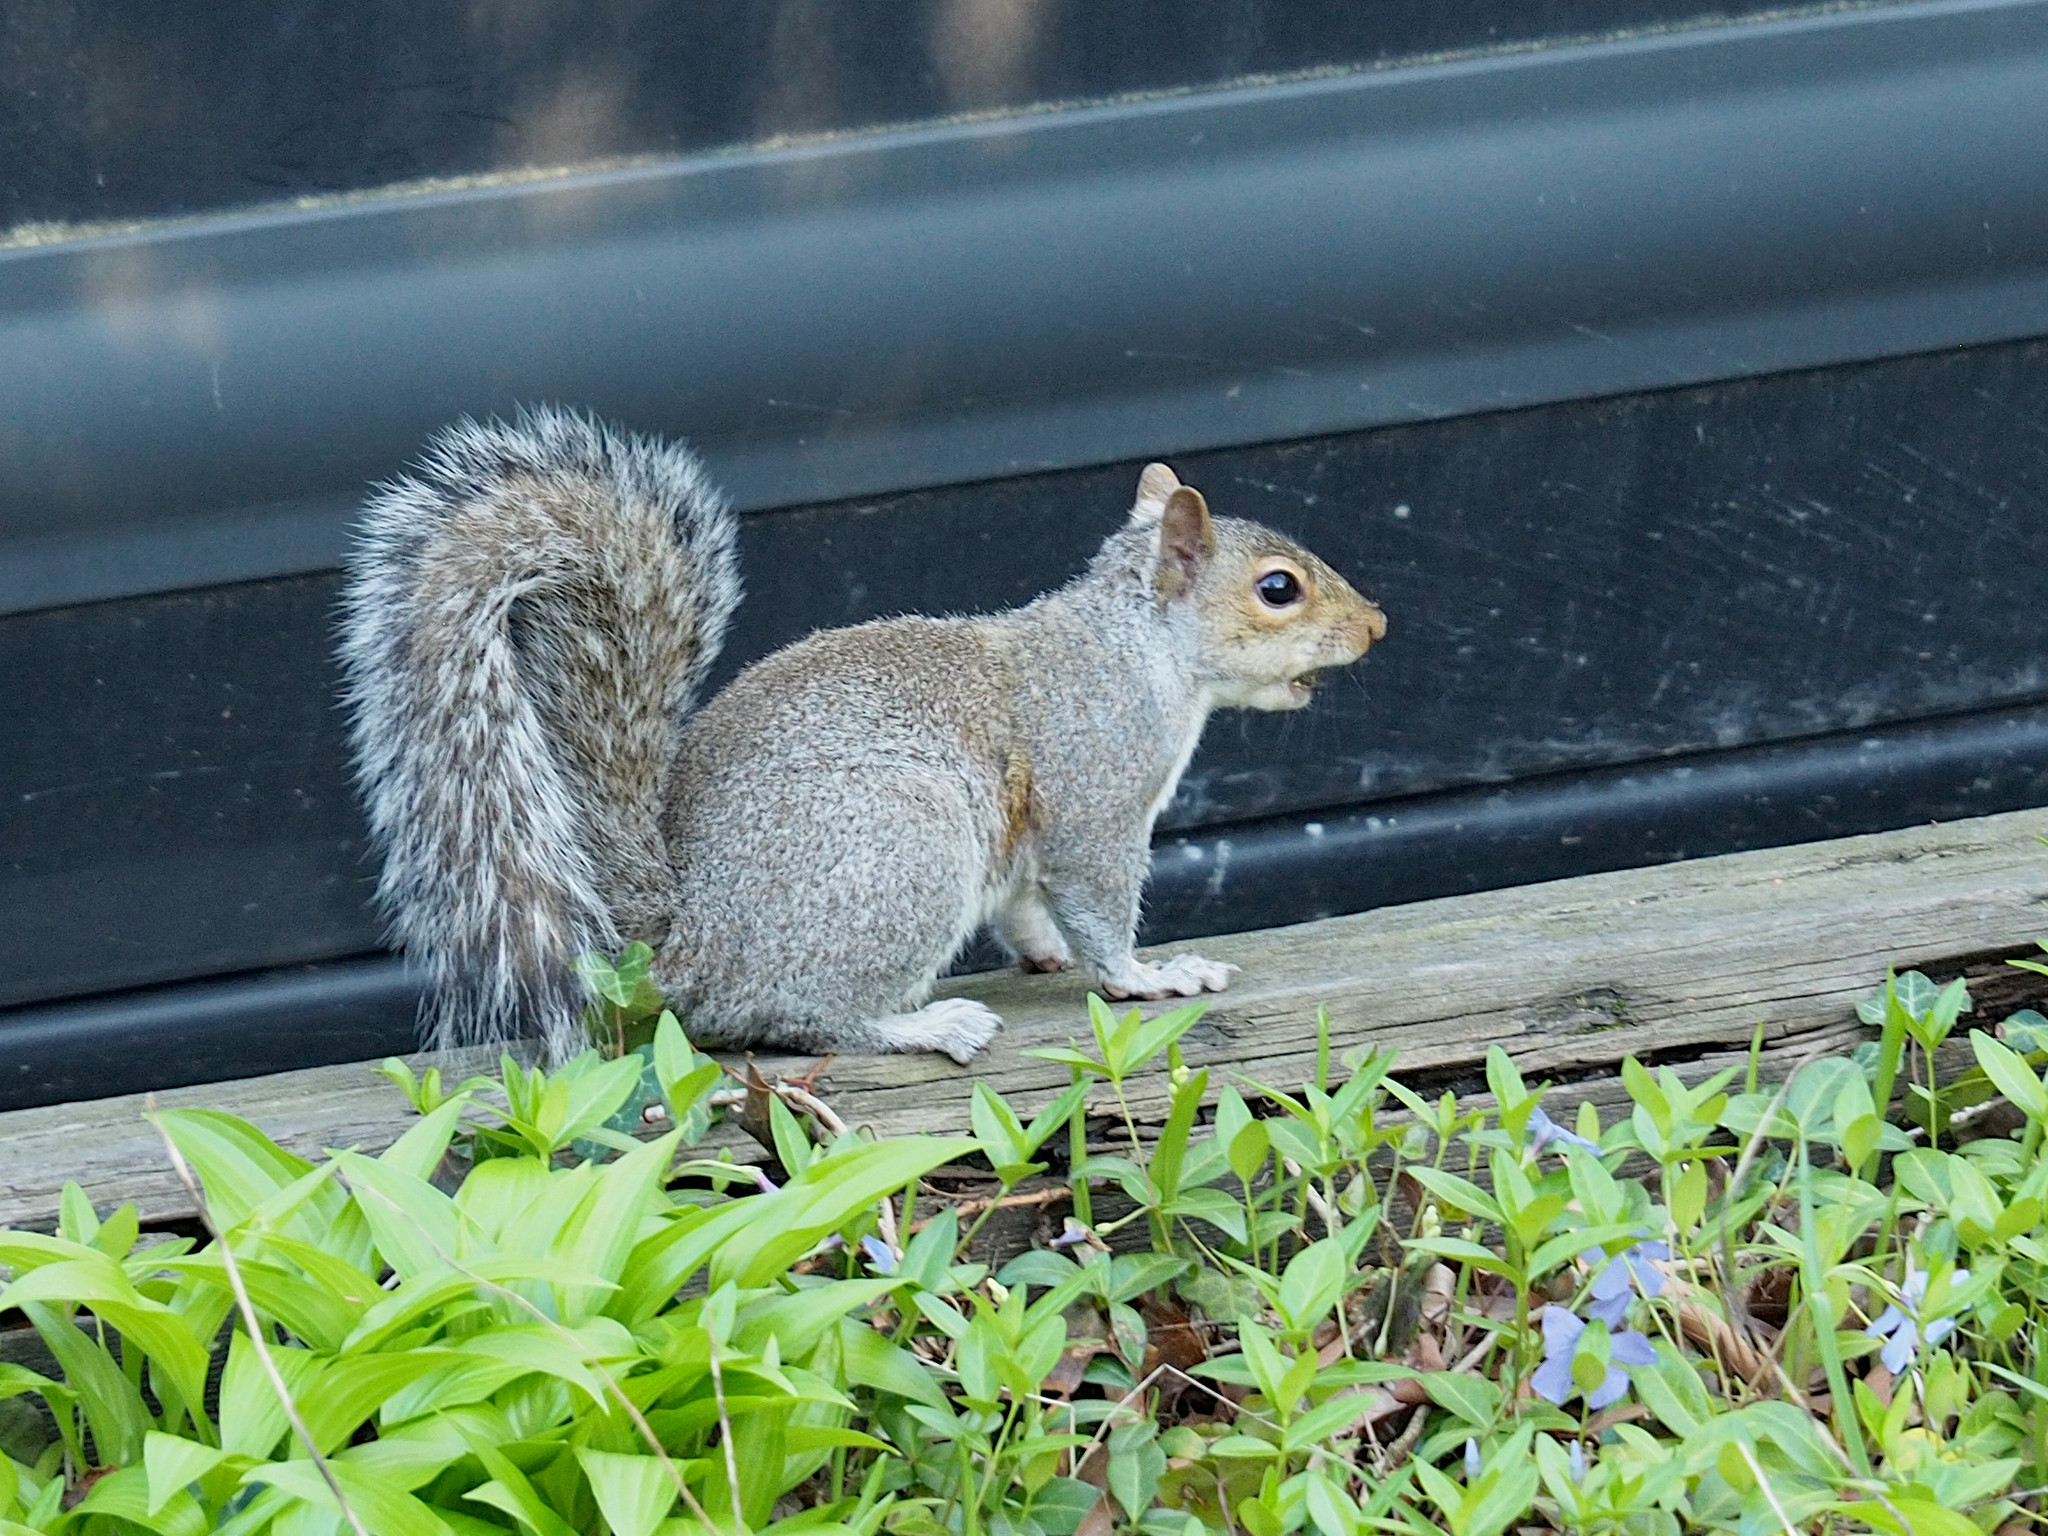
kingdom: Animalia
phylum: Chordata
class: Mammalia
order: Rodentia
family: Sciuridae
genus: Sciurus
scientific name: Sciurus carolinensis
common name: Eastern gray squirrel
